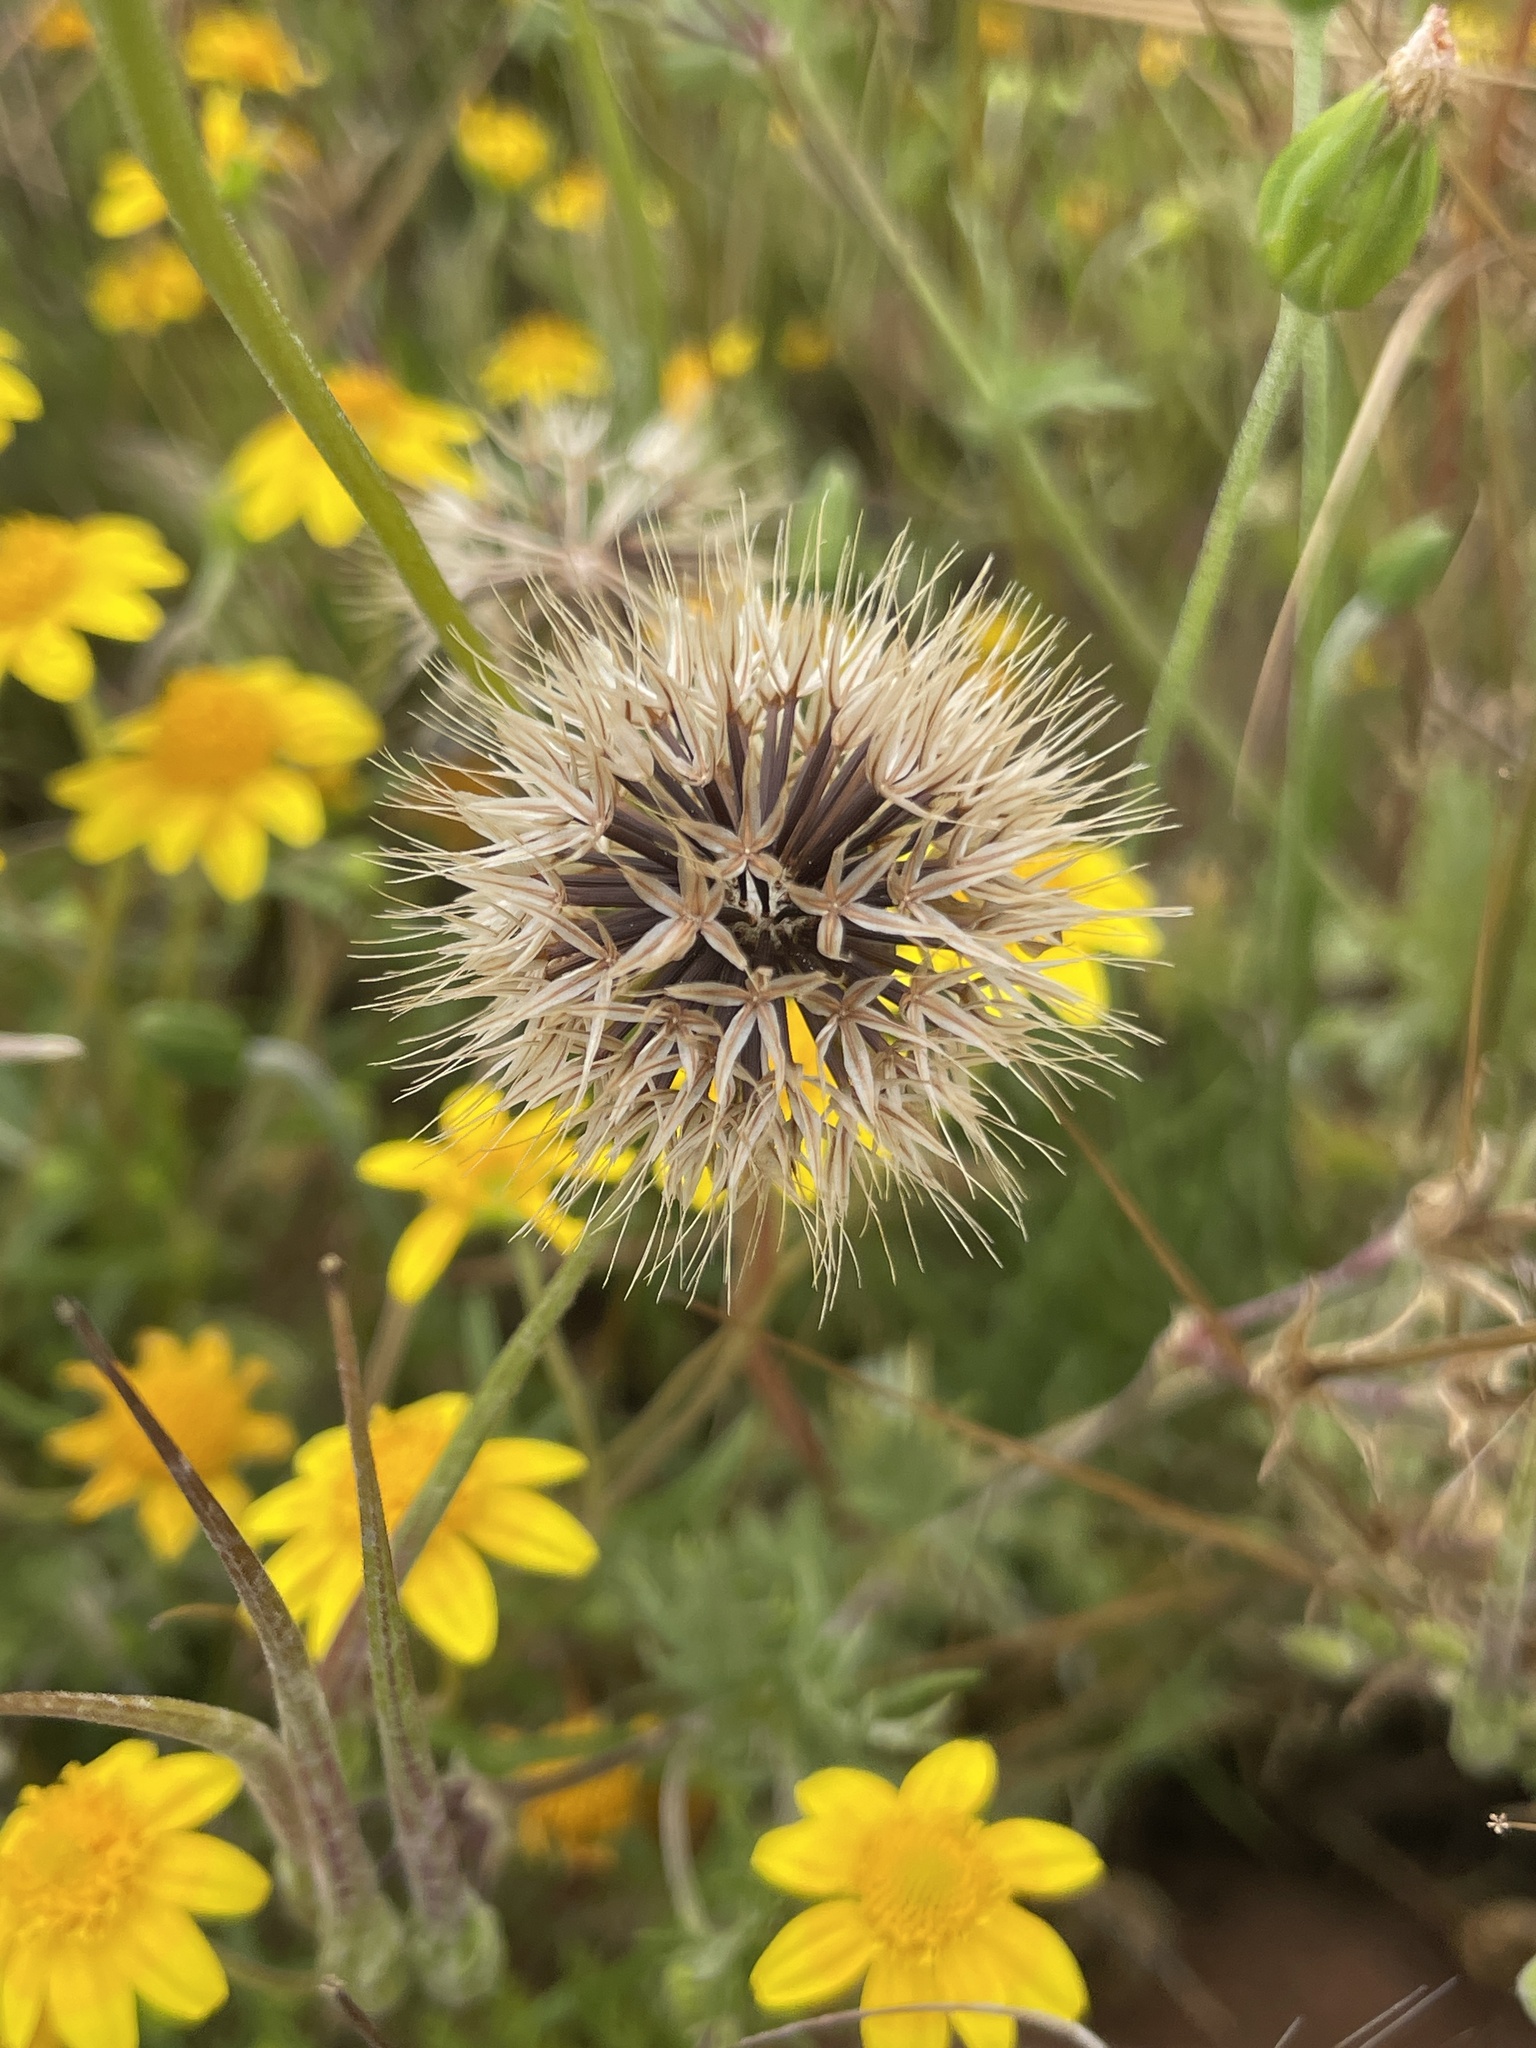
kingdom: Plantae
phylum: Tracheophyta
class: Magnoliopsida
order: Asterales
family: Asteraceae
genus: Microseris
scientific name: Microseris heterocarpa
